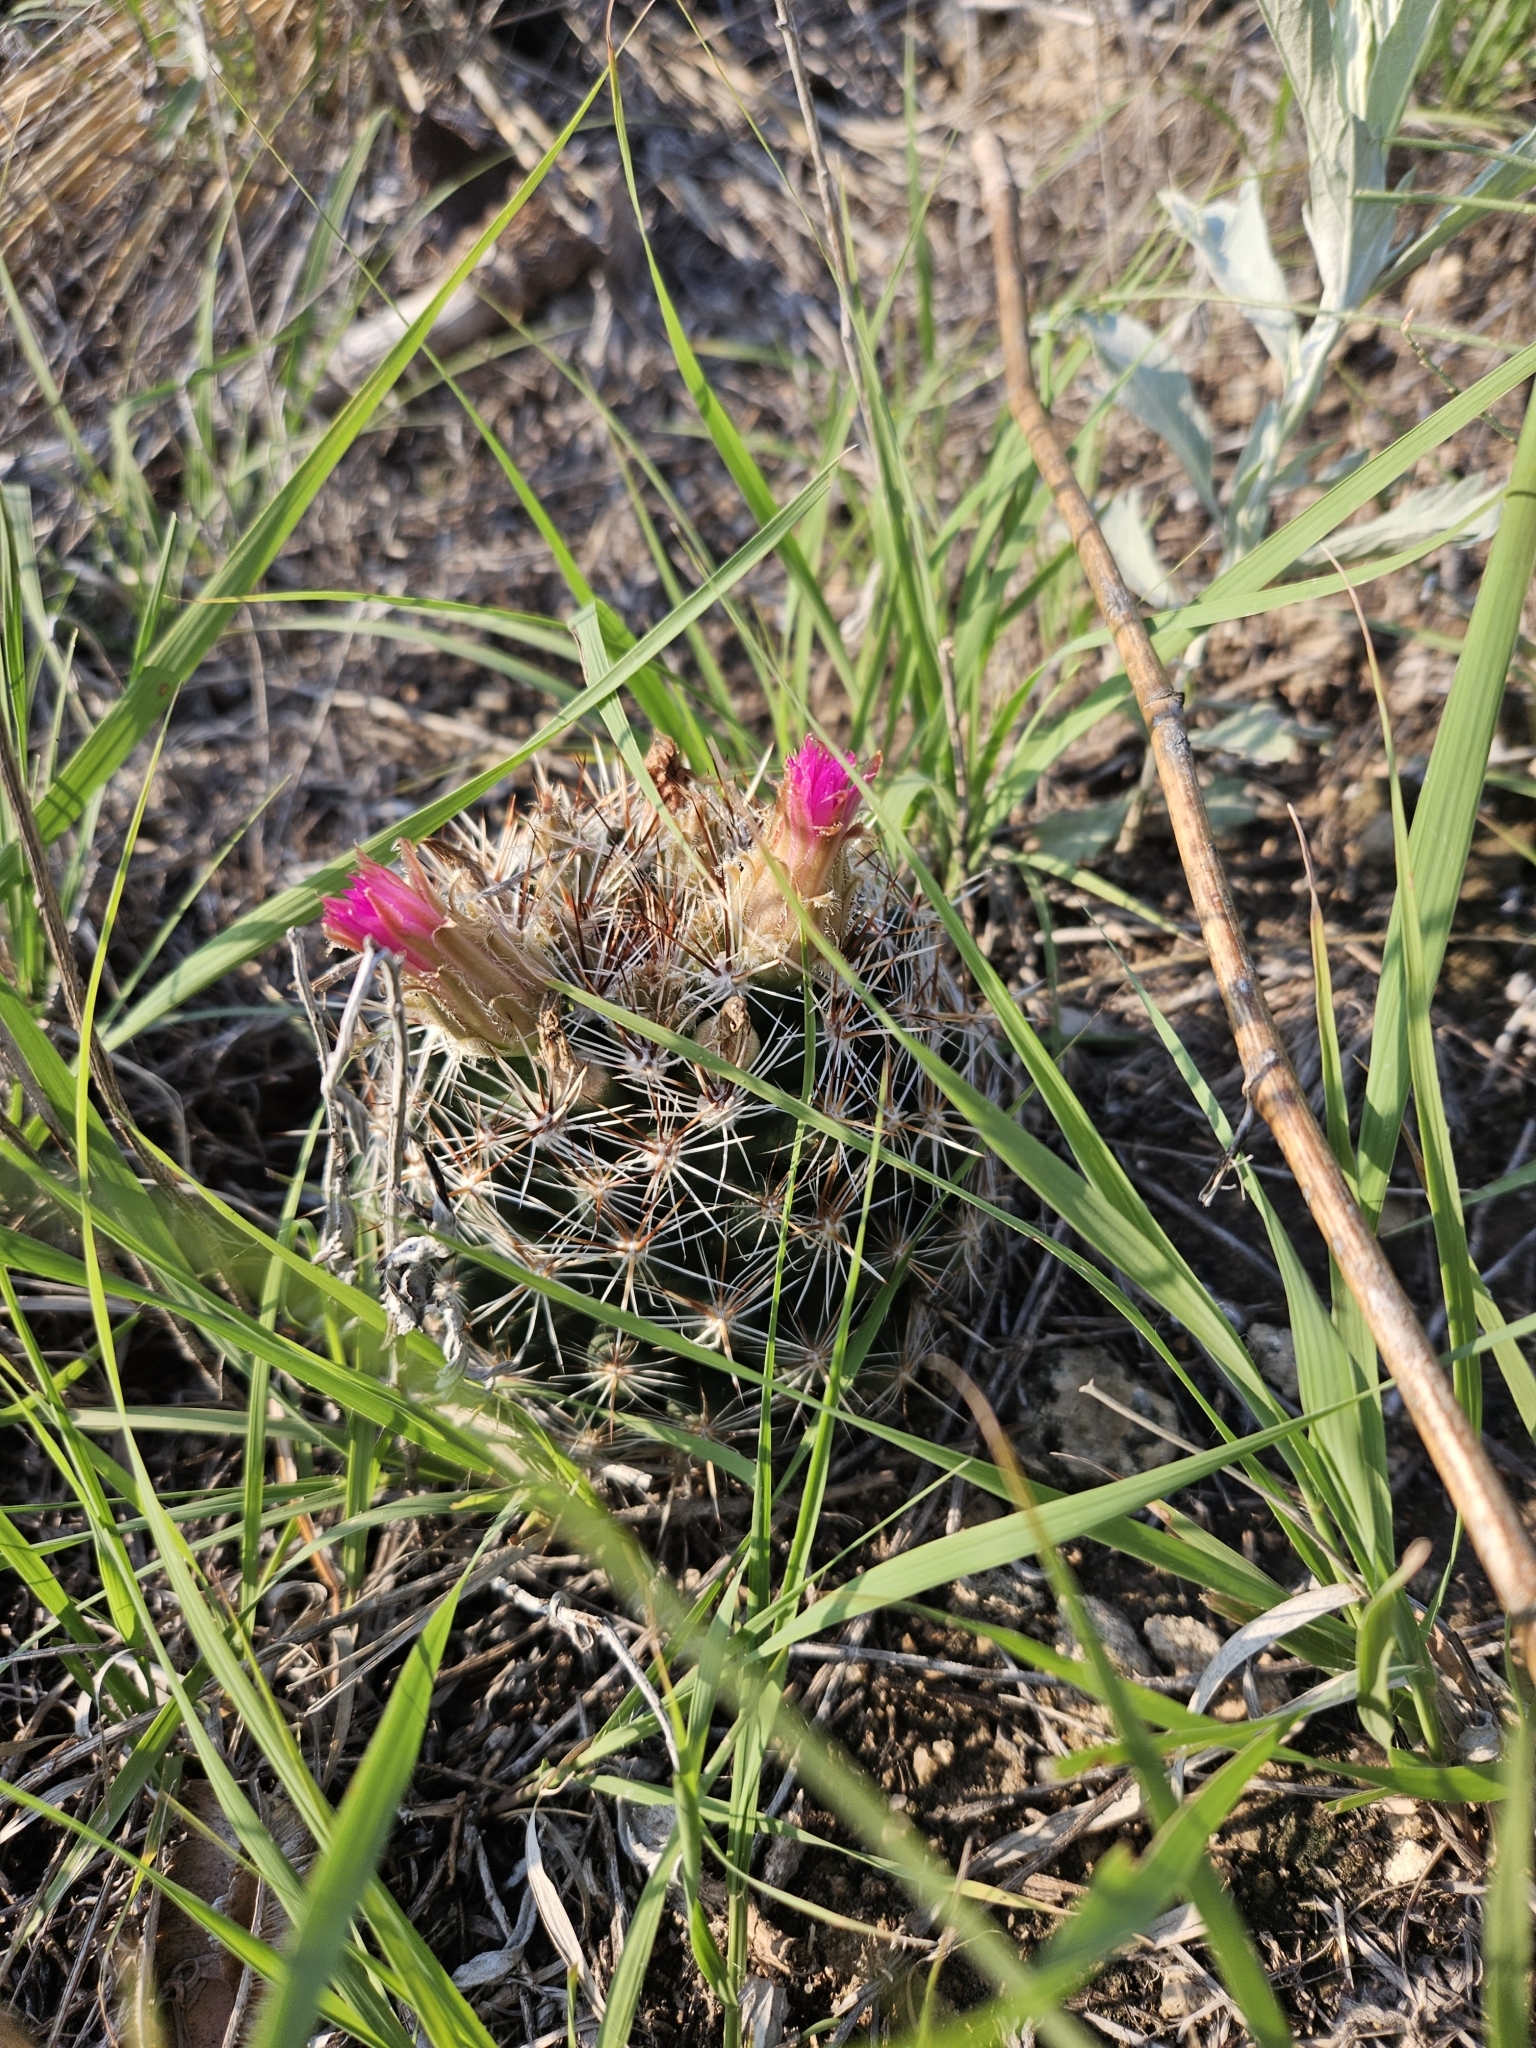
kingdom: Plantae
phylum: Tracheophyta
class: Magnoliopsida
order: Caryophyllales
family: Cactaceae
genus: Pelecyphora
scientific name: Pelecyphora vivipara
